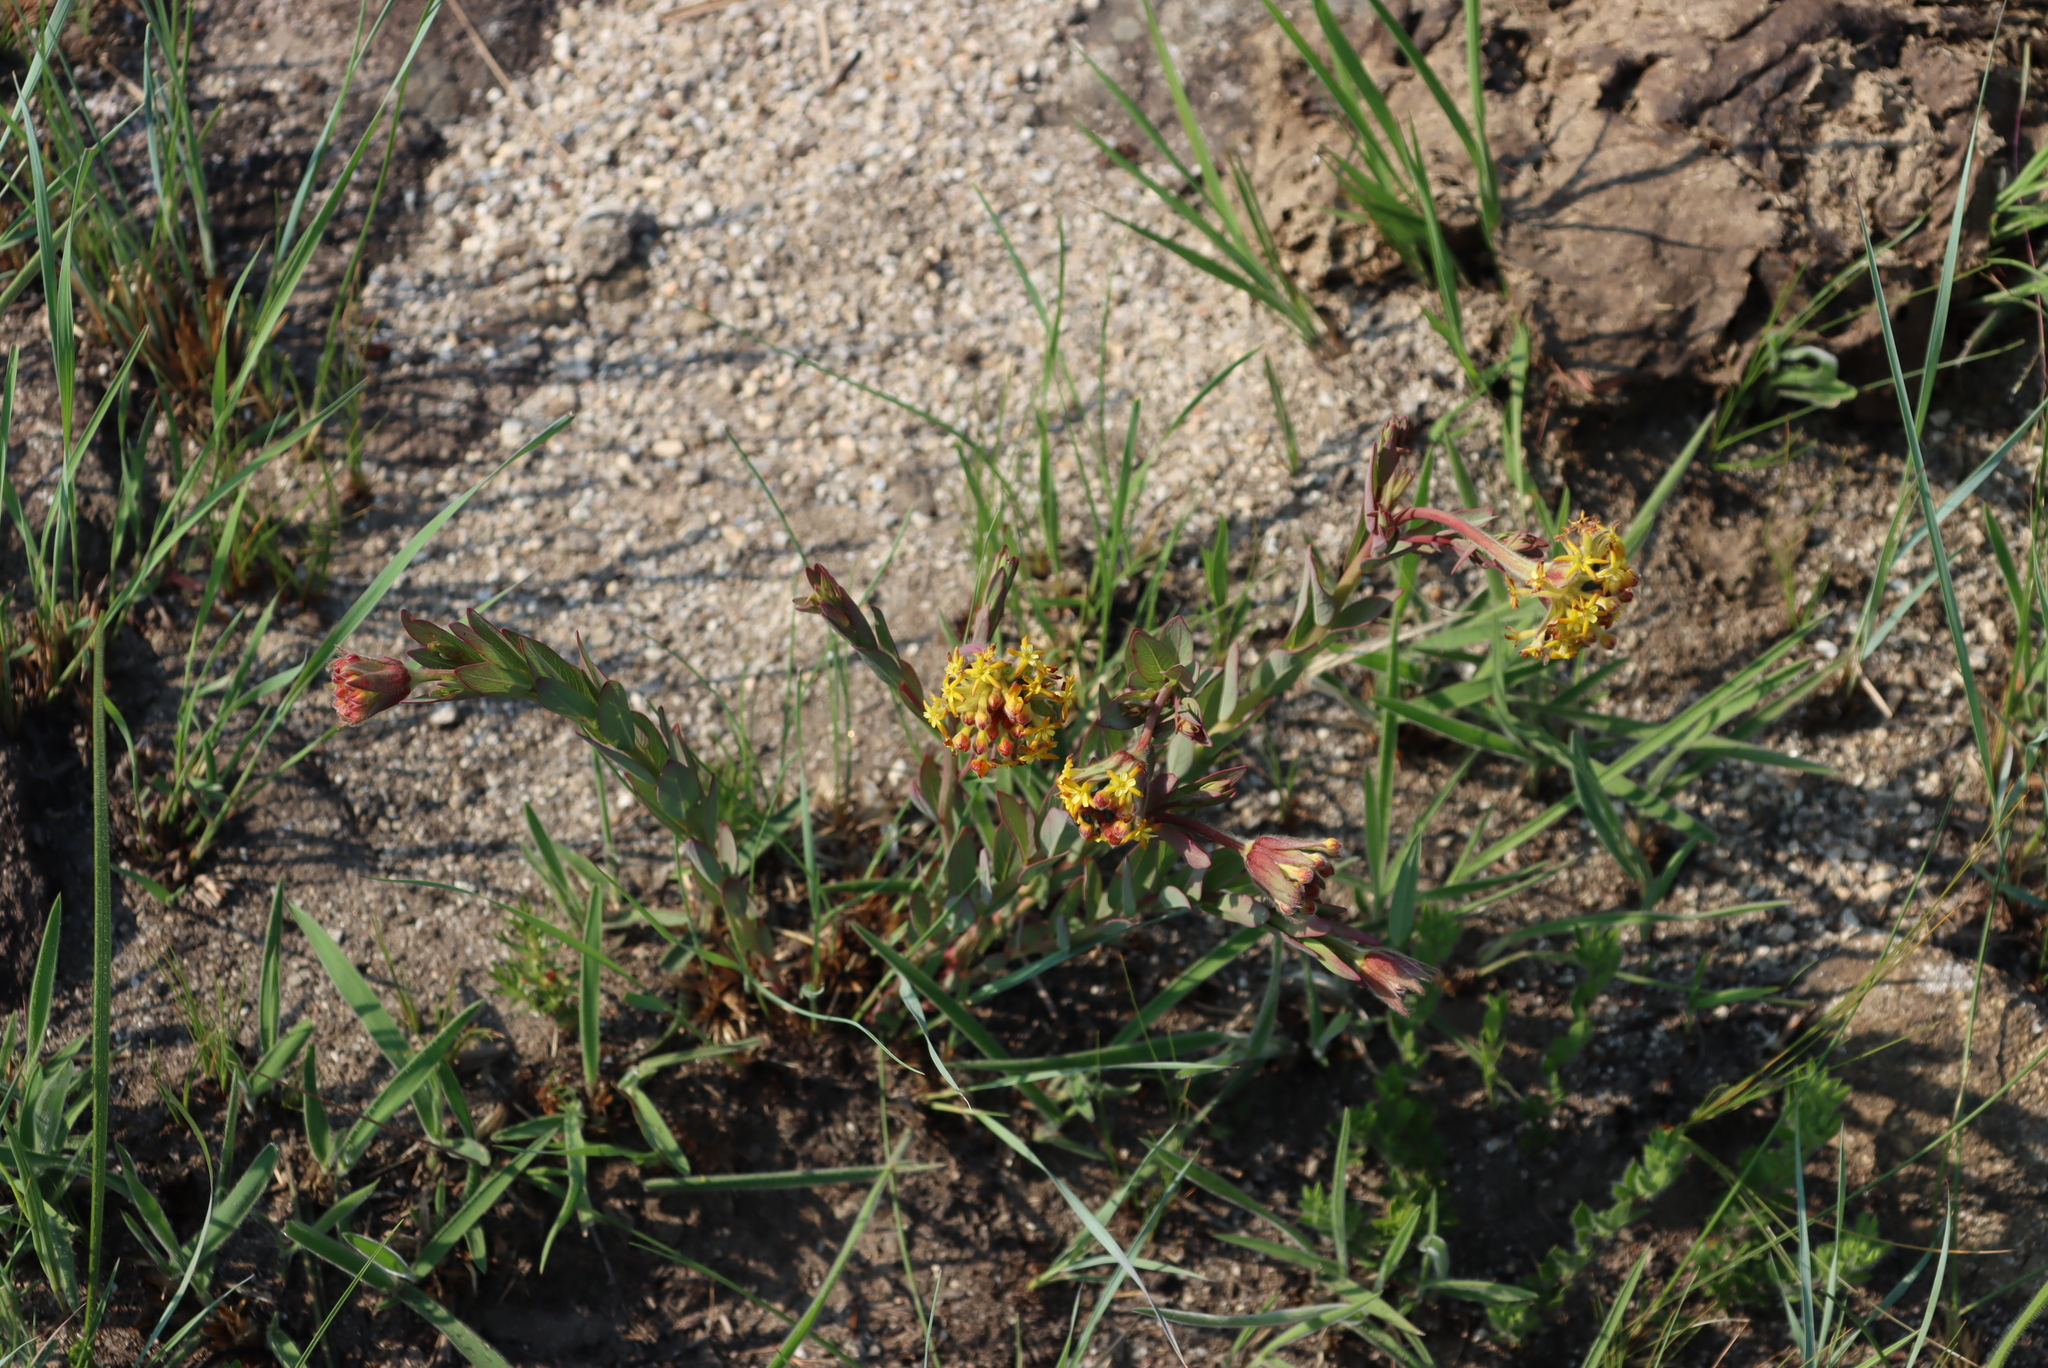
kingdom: Plantae
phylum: Tracheophyta
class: Magnoliopsida
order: Malvales
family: Thymelaeaceae
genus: Gnidia
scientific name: Gnidia kraussiana
